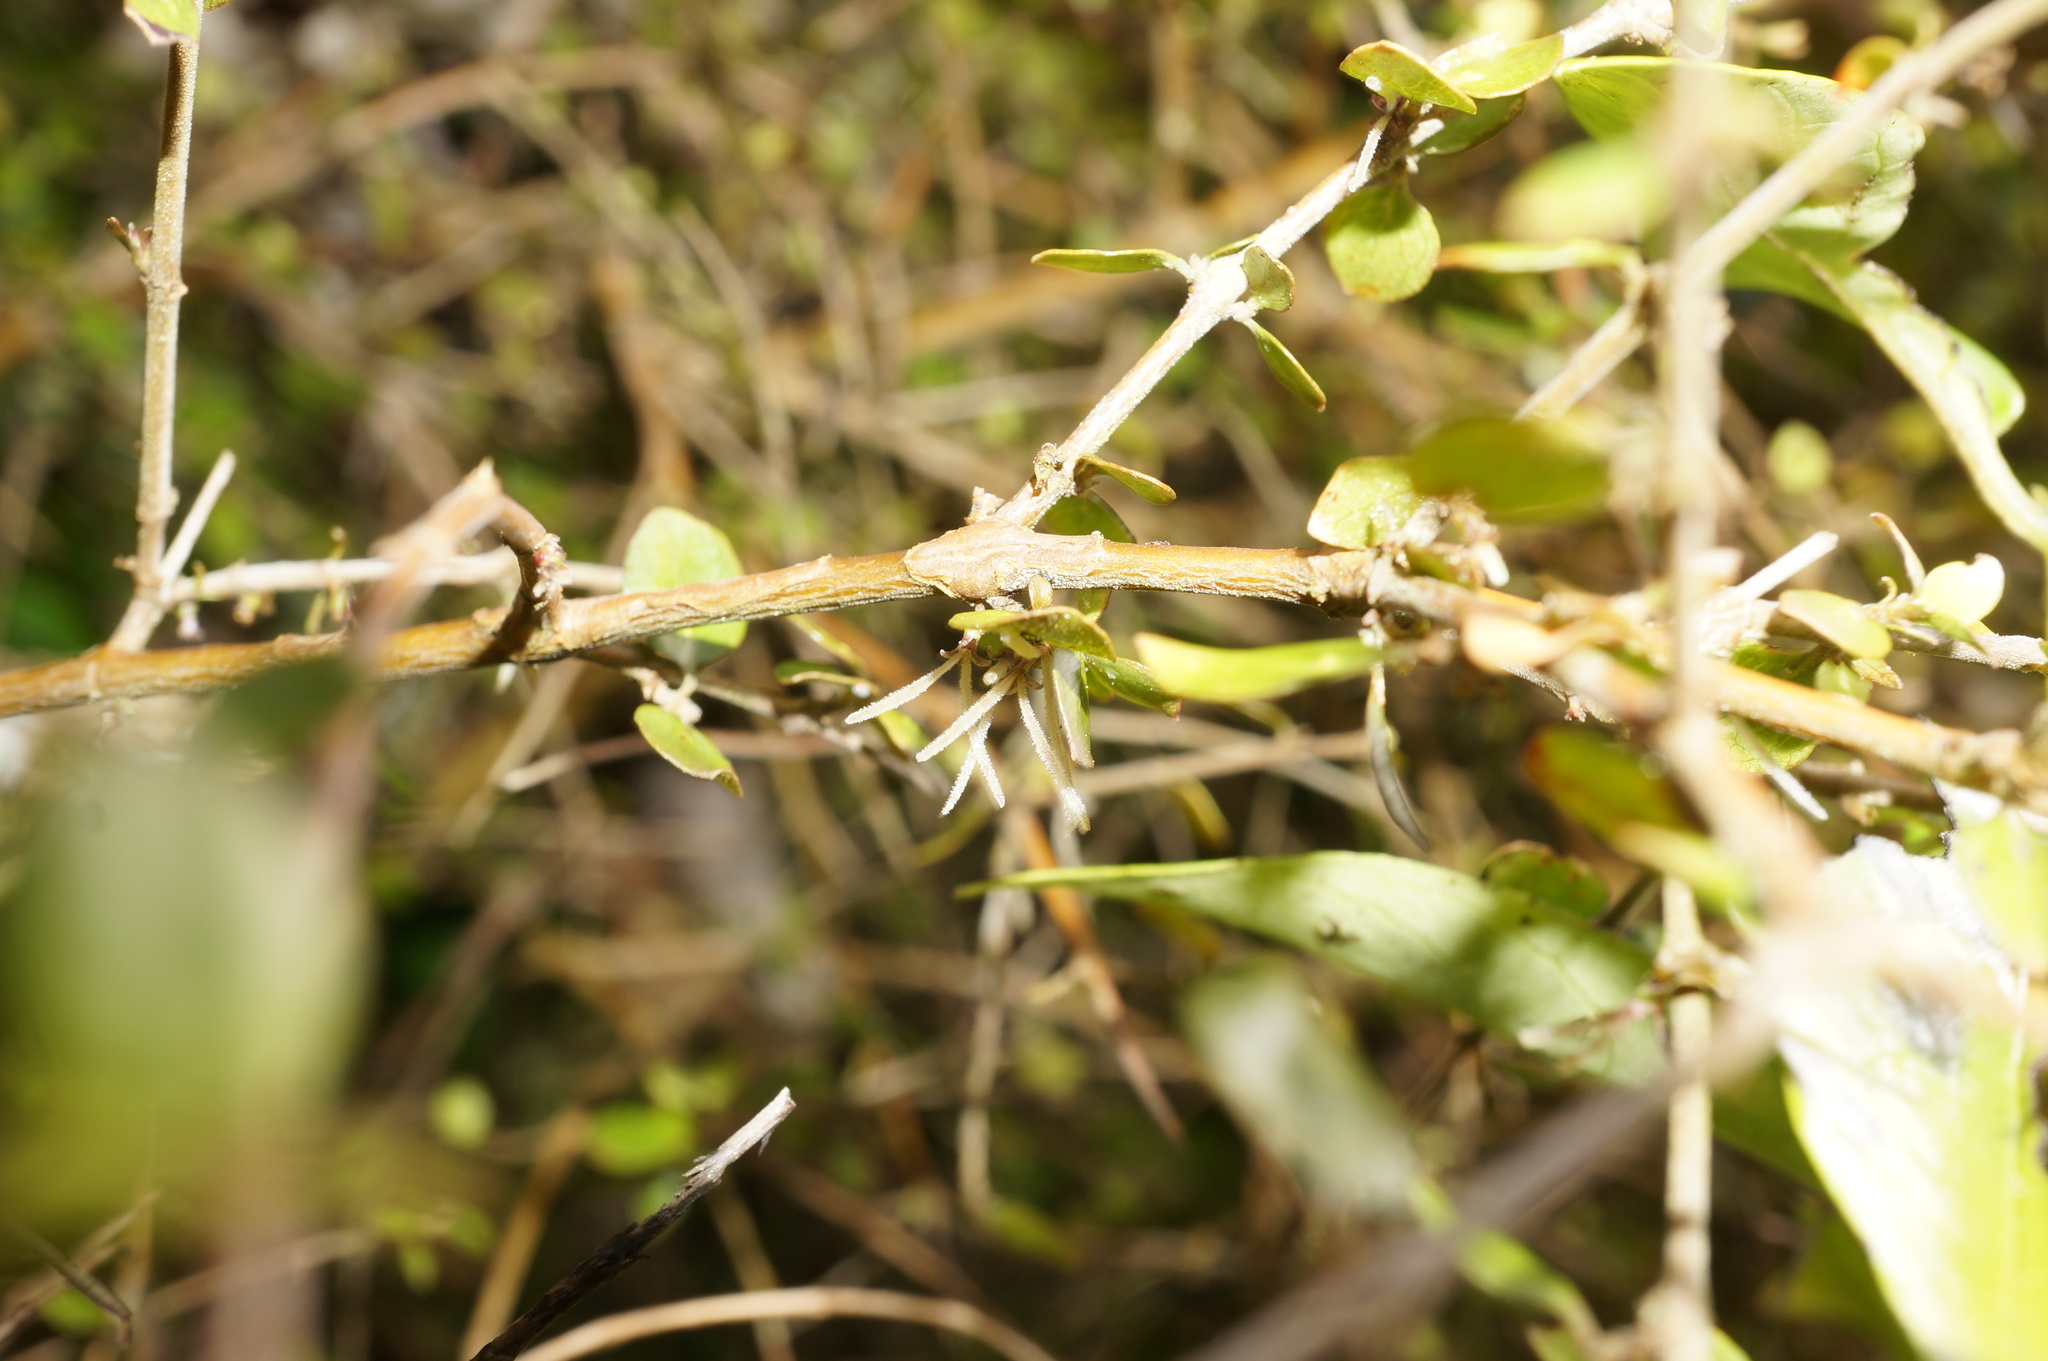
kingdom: Plantae
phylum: Tracheophyta
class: Magnoliopsida
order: Gentianales
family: Rubiaceae
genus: Coprosma
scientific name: Coprosma rhamnoides
